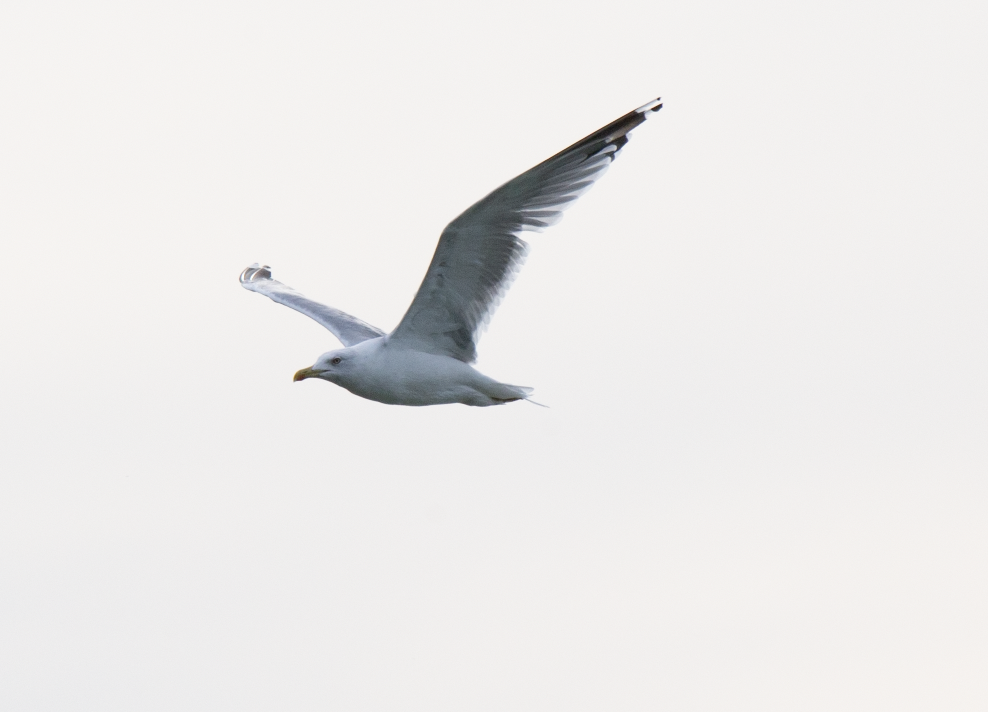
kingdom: Animalia
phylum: Chordata
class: Aves
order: Charadriiformes
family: Laridae
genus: Larus
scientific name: Larus michahellis
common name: Yellow-legged gull
